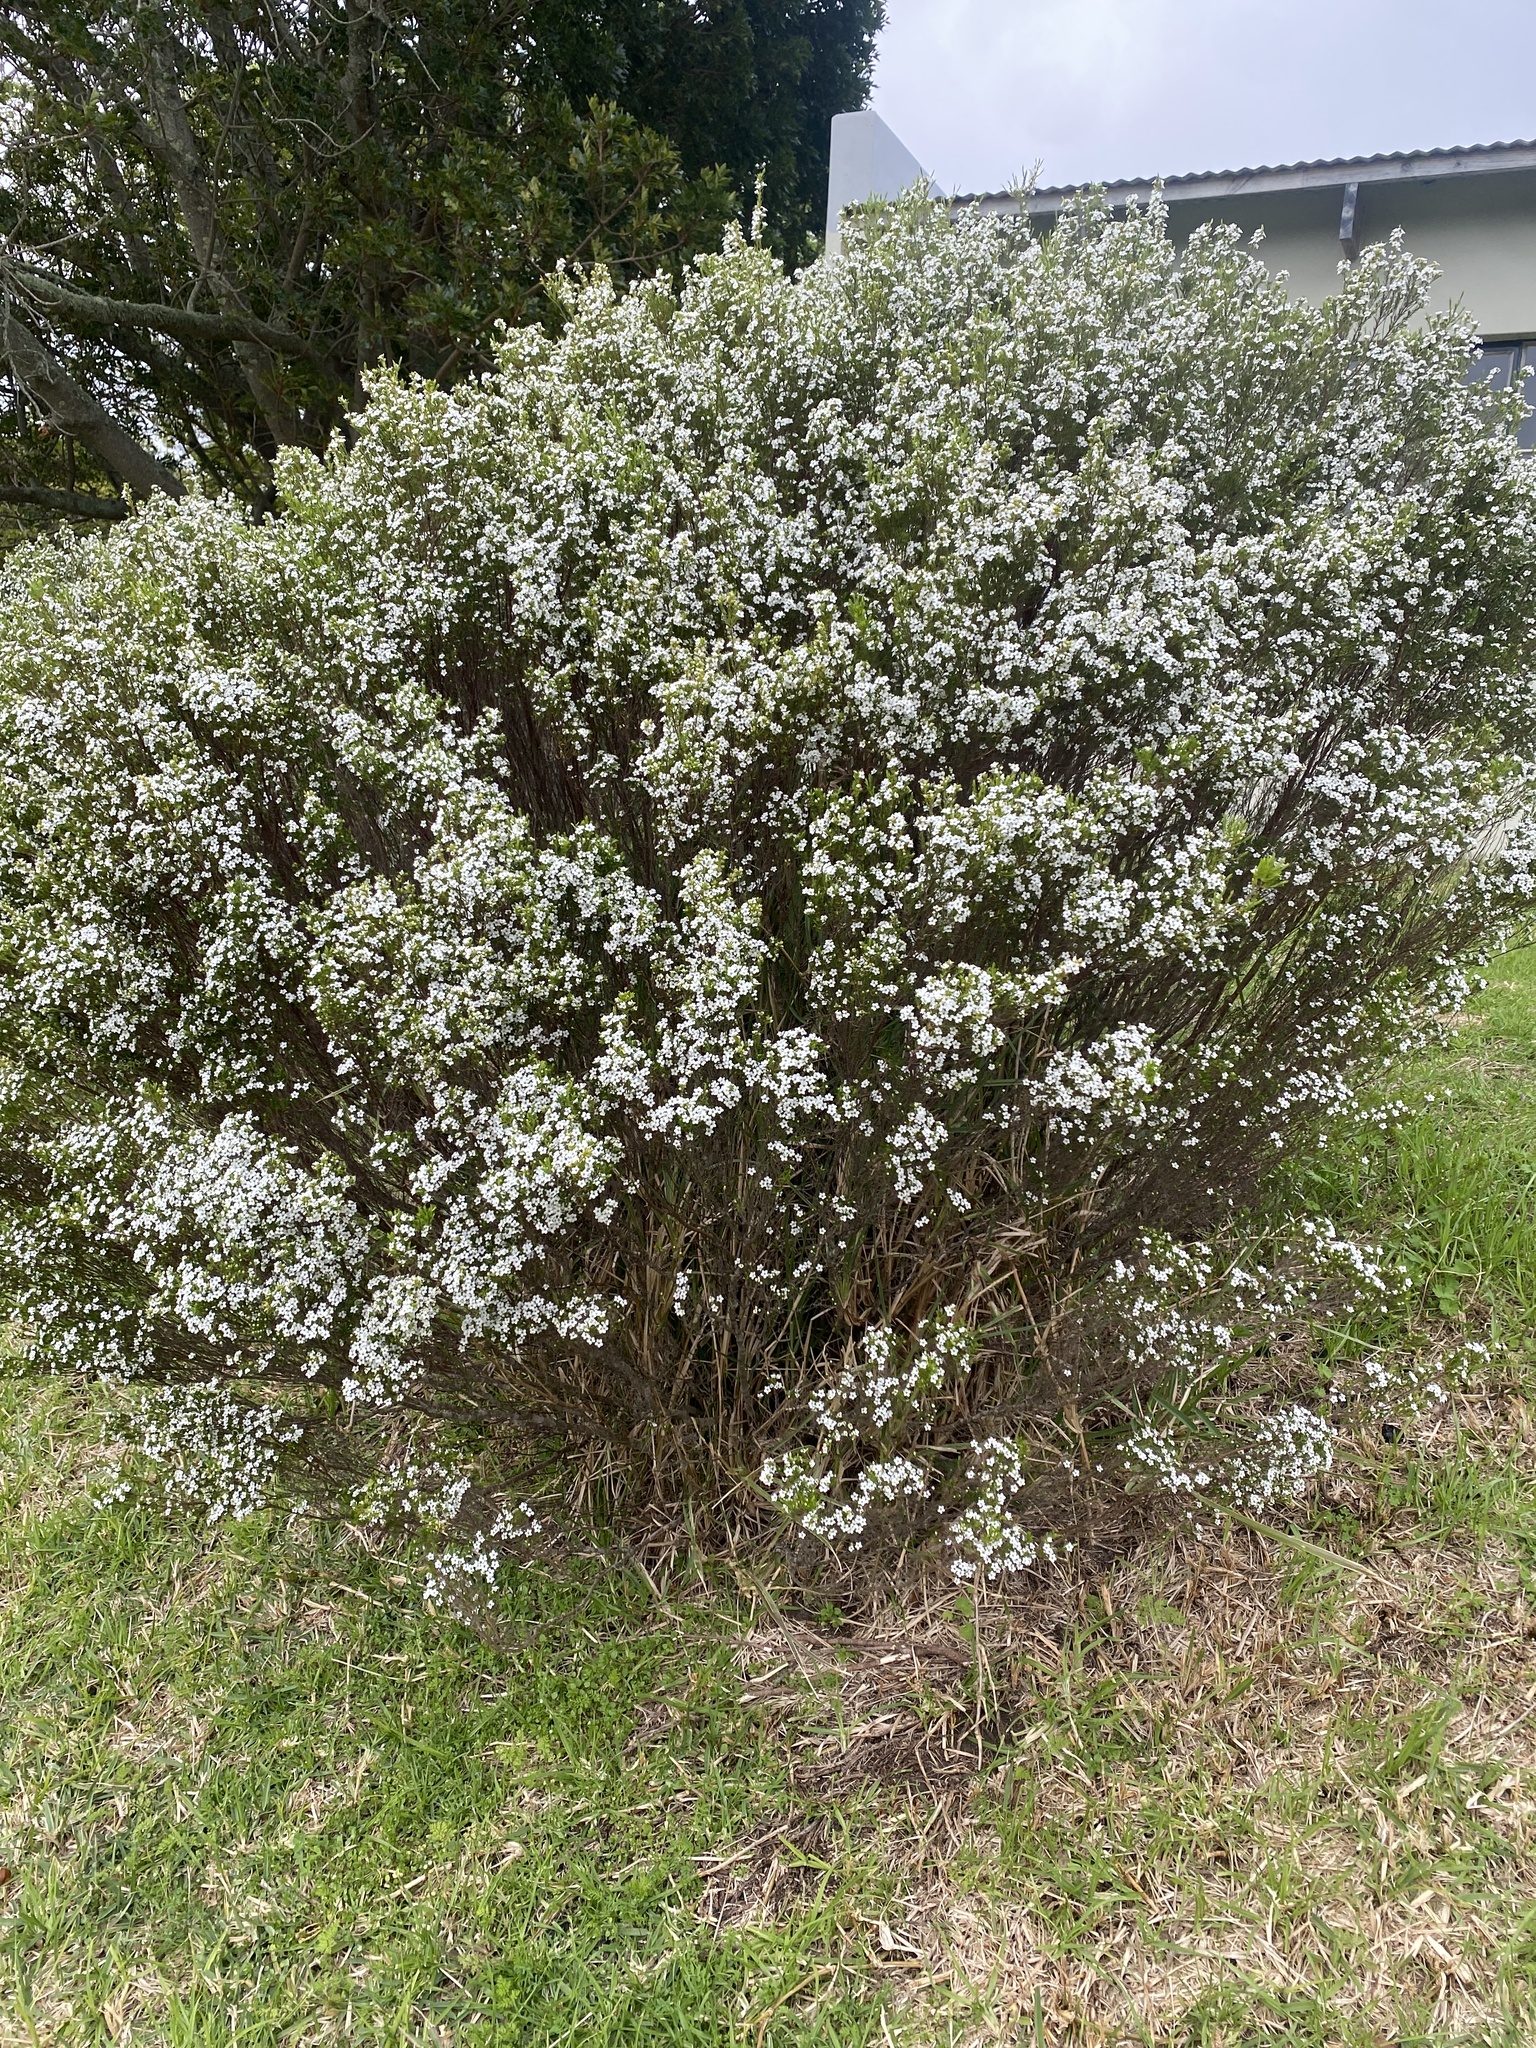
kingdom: Plantae
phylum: Tracheophyta
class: Magnoliopsida
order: Sapindales
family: Rutaceae
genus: Coleonema
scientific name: Coleonema album
